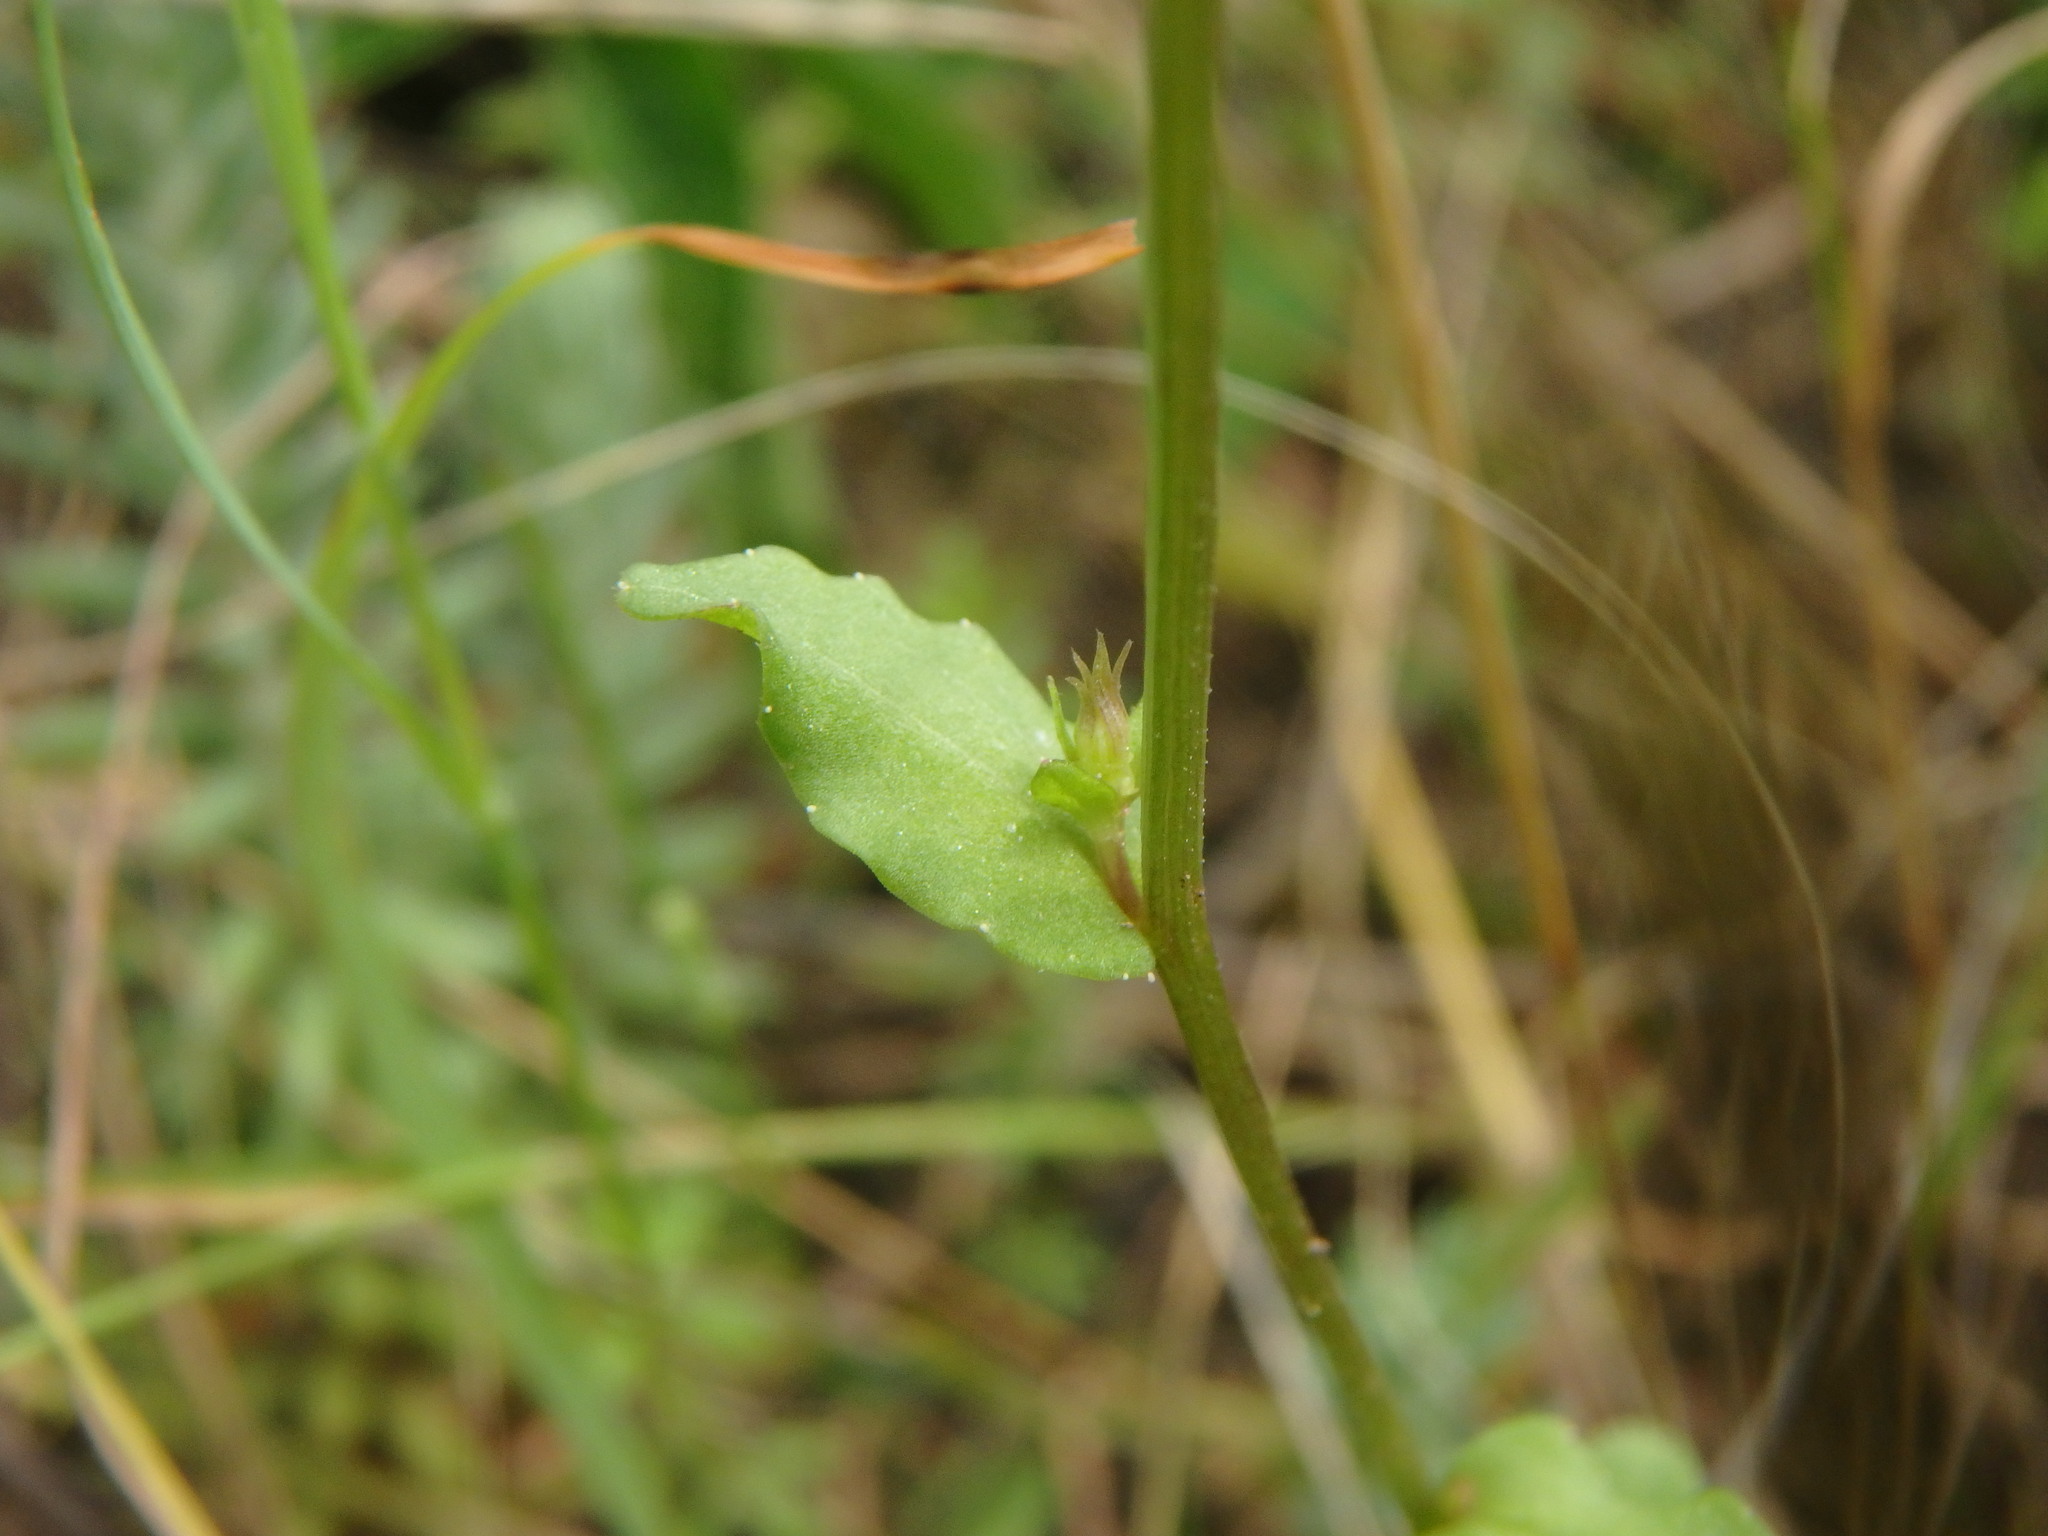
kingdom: Plantae
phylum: Tracheophyta
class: Magnoliopsida
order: Asterales
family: Campanulaceae
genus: Legousia
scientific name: Legousia speculum-veneris
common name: Large venus's-looking-glass
